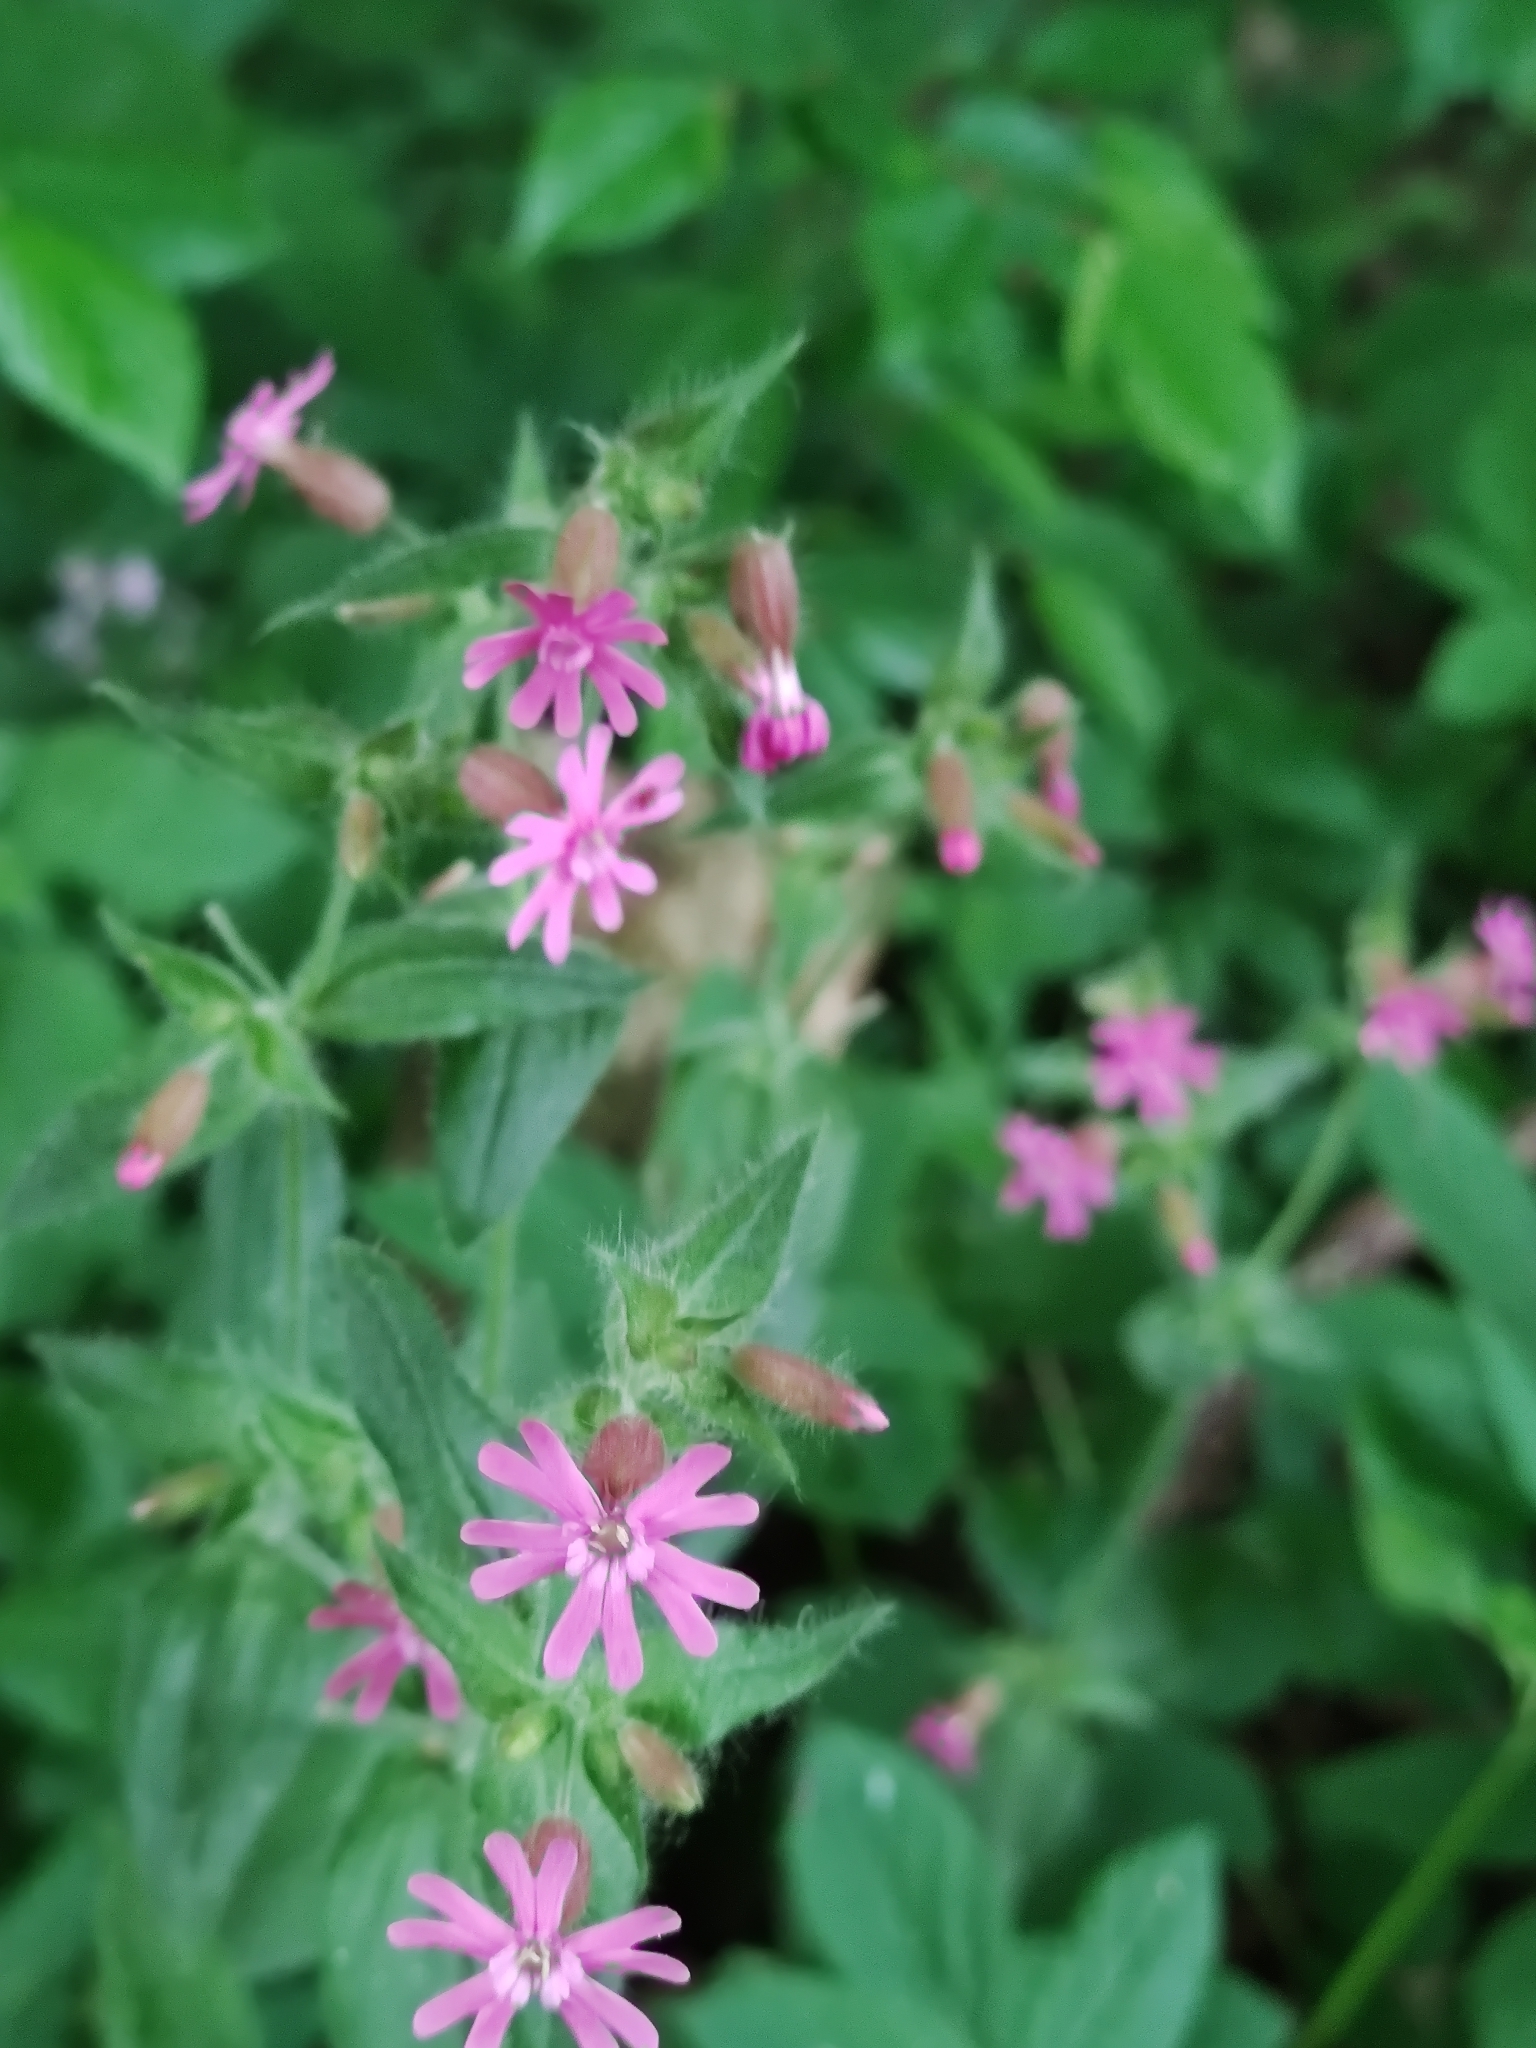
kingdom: Plantae
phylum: Tracheophyta
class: Magnoliopsida
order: Caryophyllales
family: Caryophyllaceae
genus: Silene
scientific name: Silene dioica
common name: Red campion
